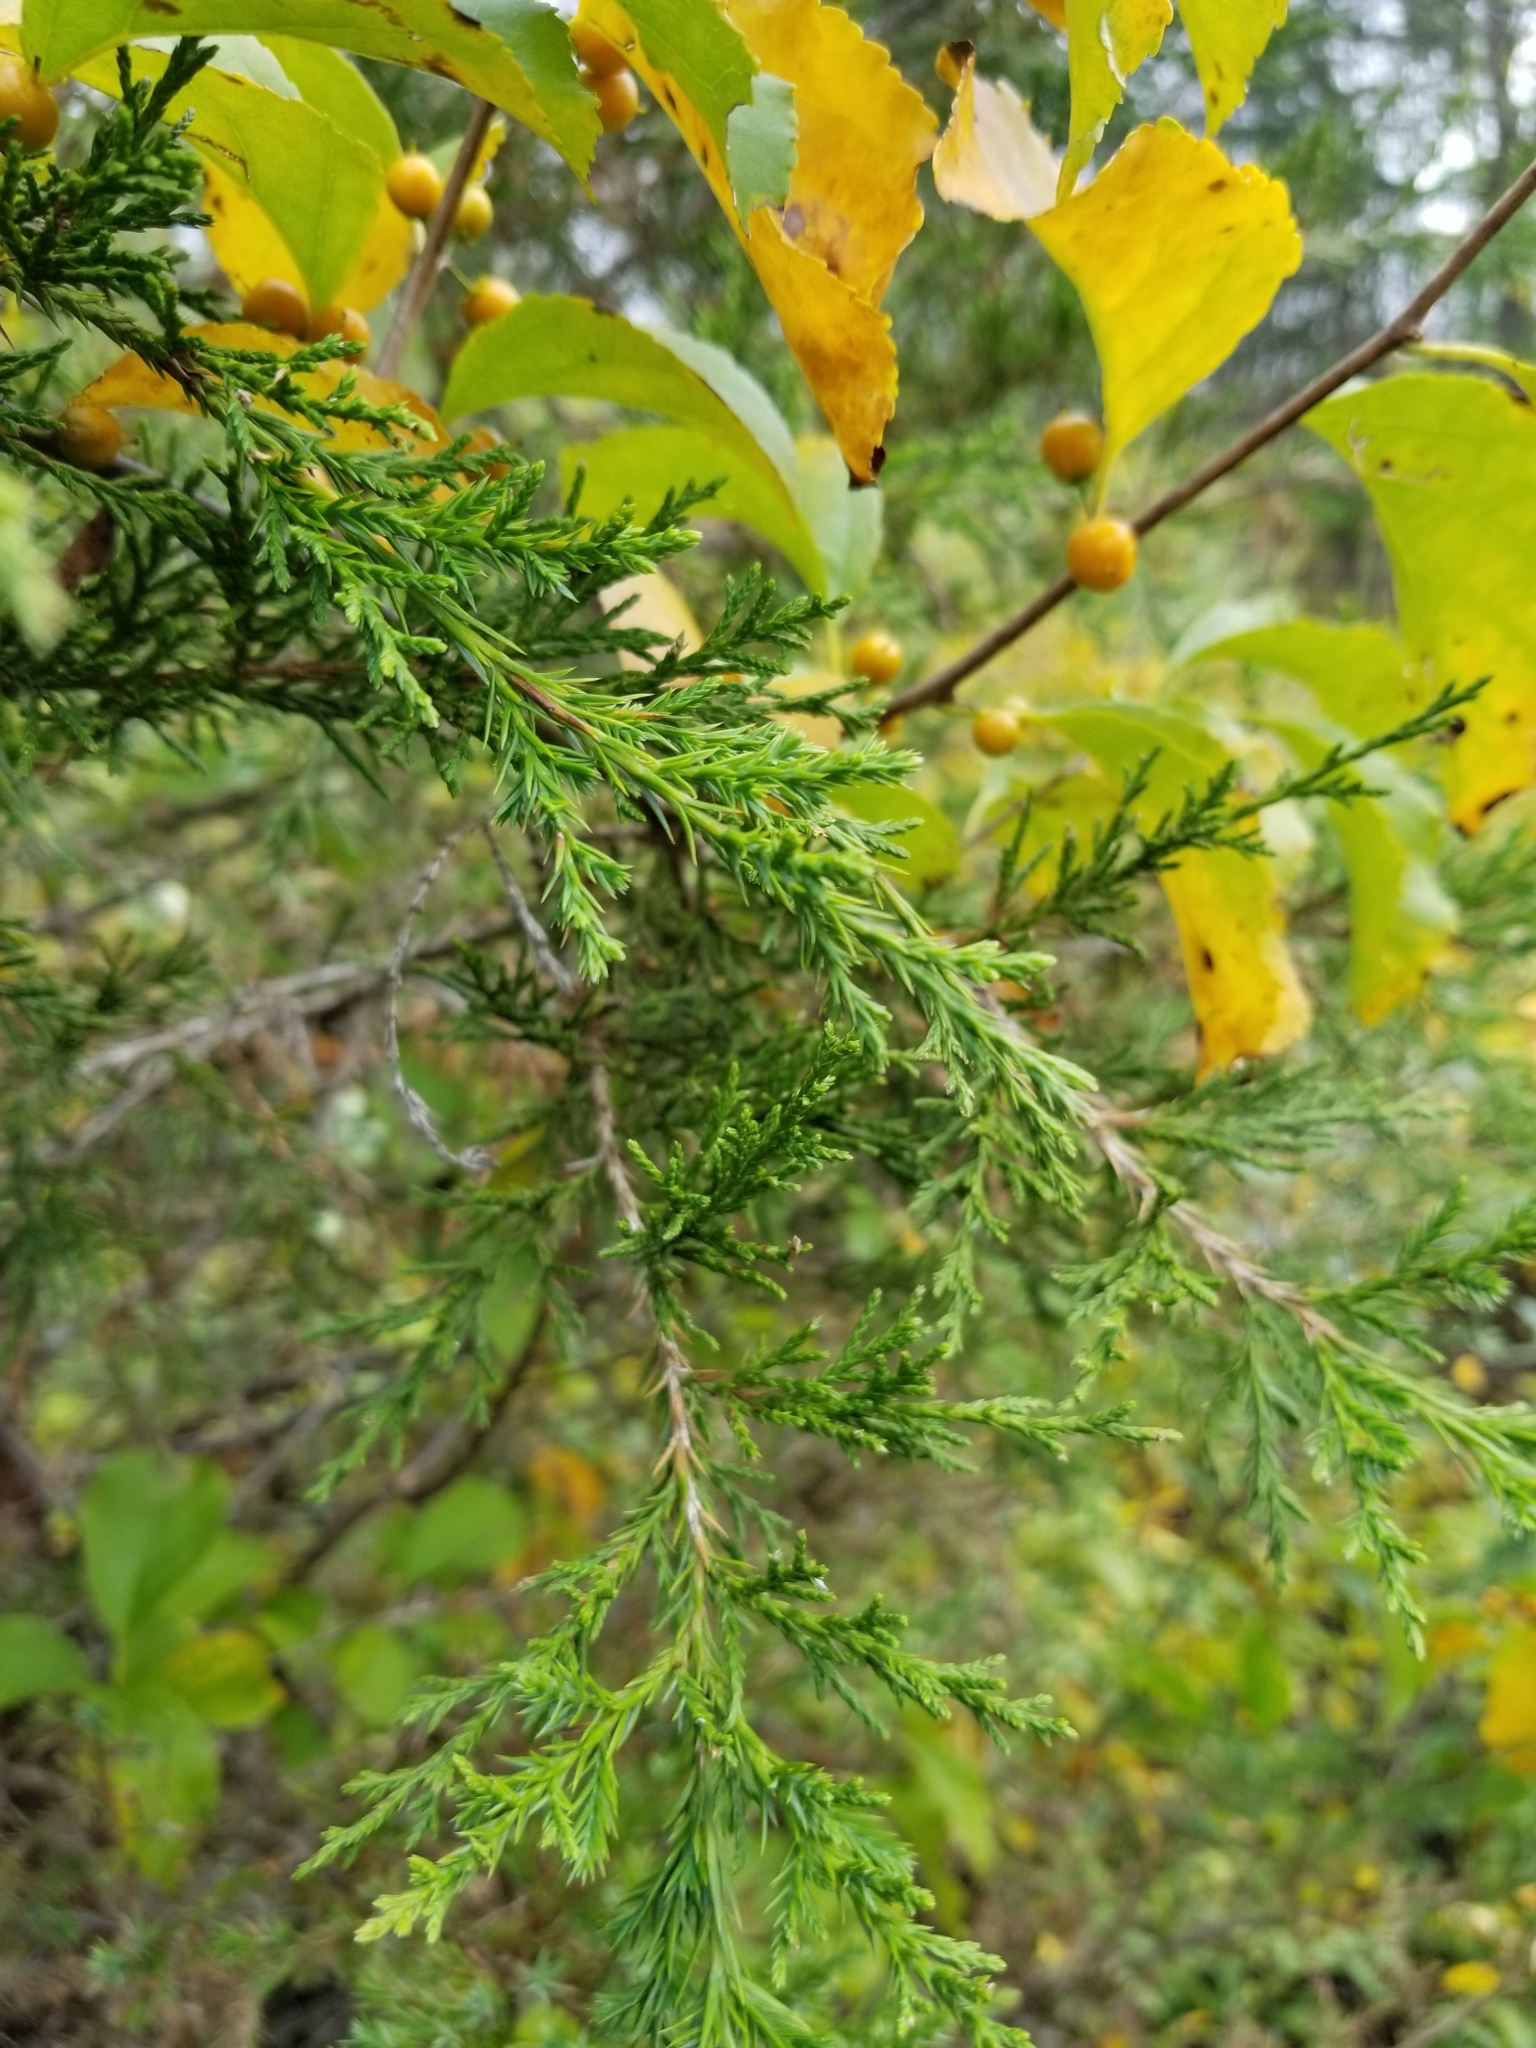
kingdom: Plantae
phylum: Tracheophyta
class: Pinopsida
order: Pinales
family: Cupressaceae
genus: Juniperus
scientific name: Juniperus virginiana
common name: Red juniper
